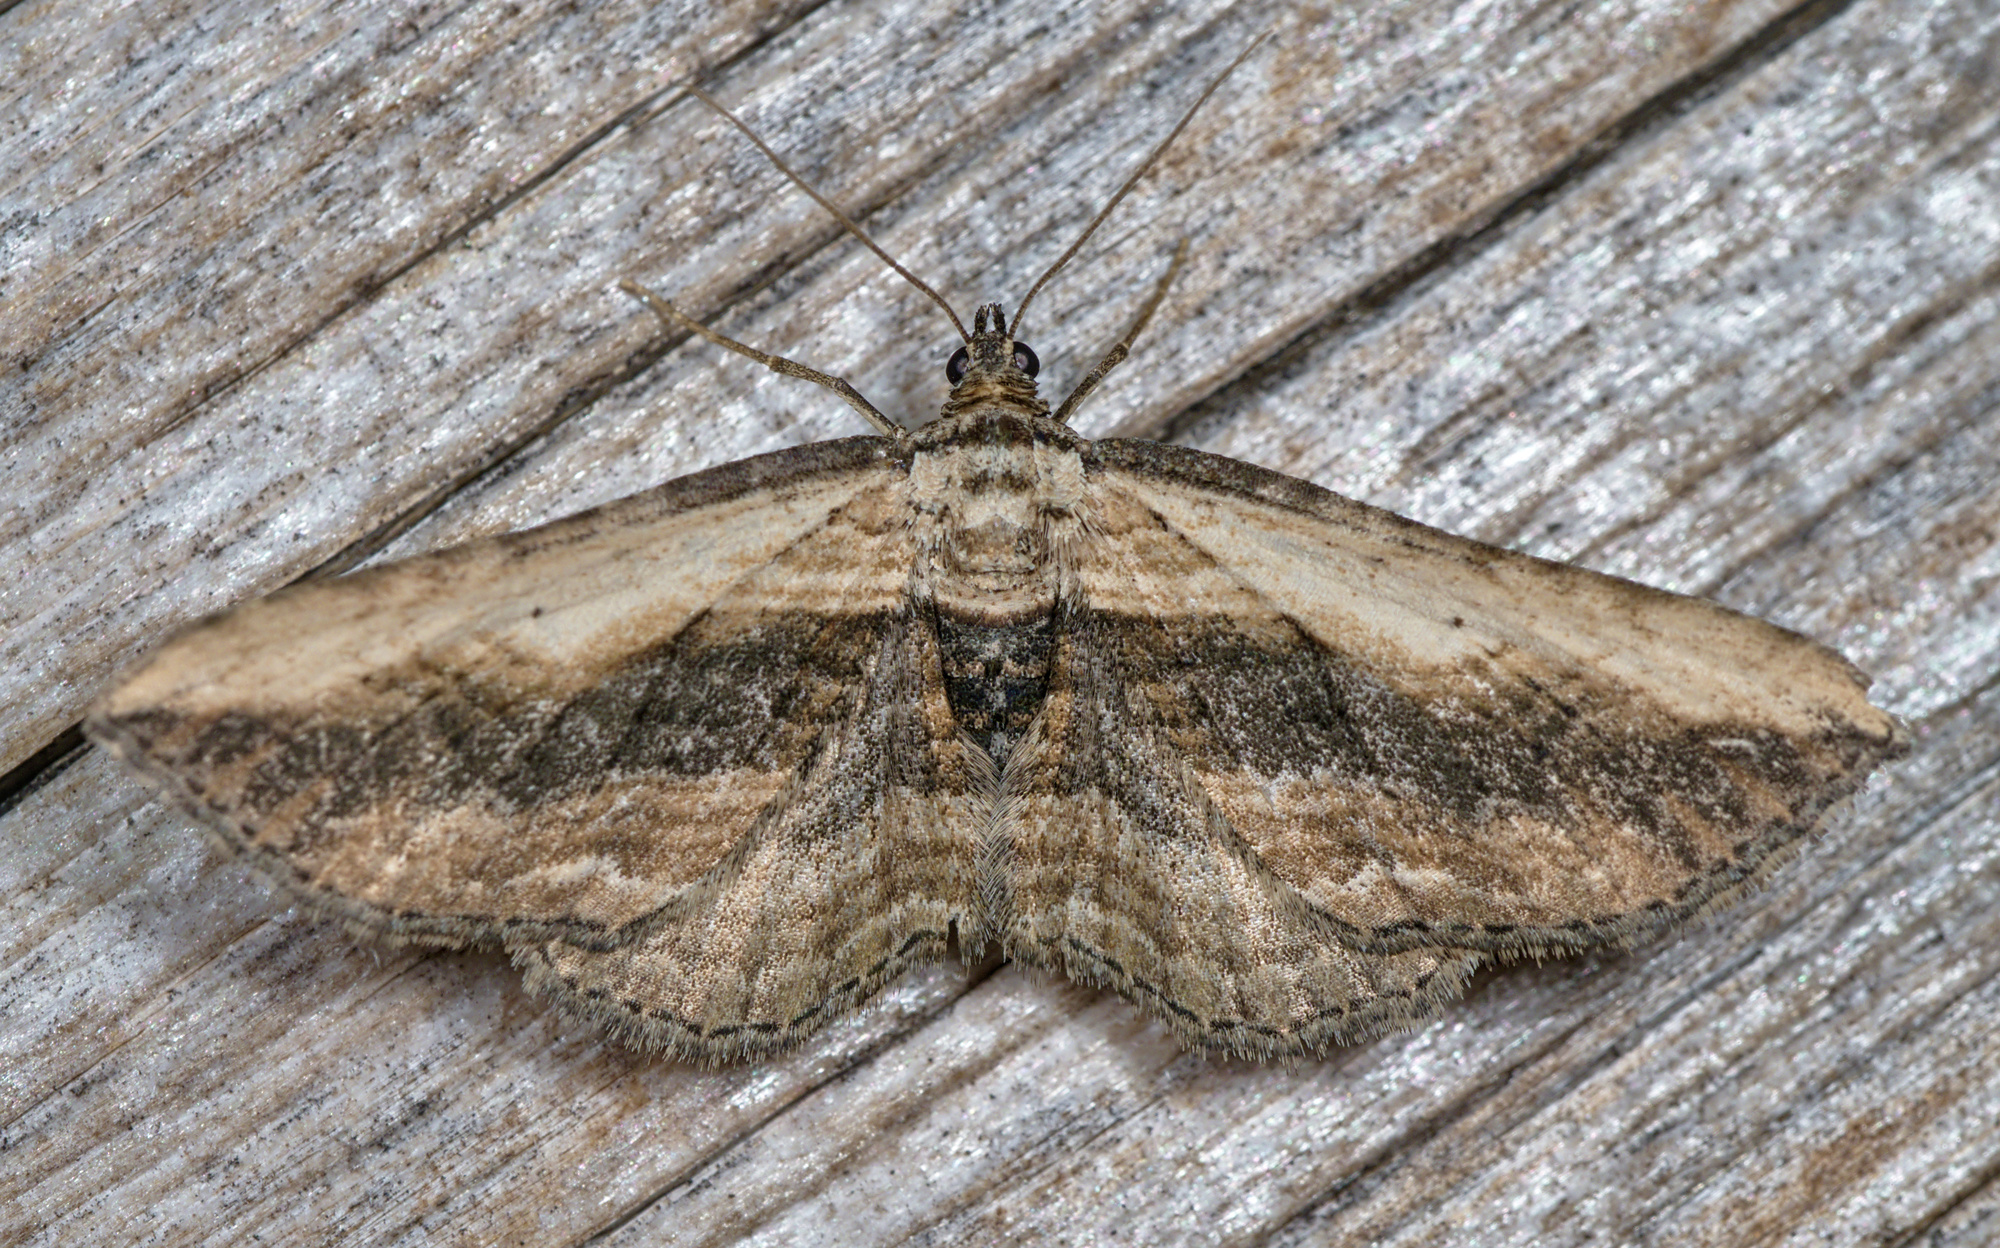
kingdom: Animalia
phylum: Arthropoda
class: Insecta
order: Lepidoptera
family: Geometridae
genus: Horisme
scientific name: Horisme vitalbata
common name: Small waved umber
